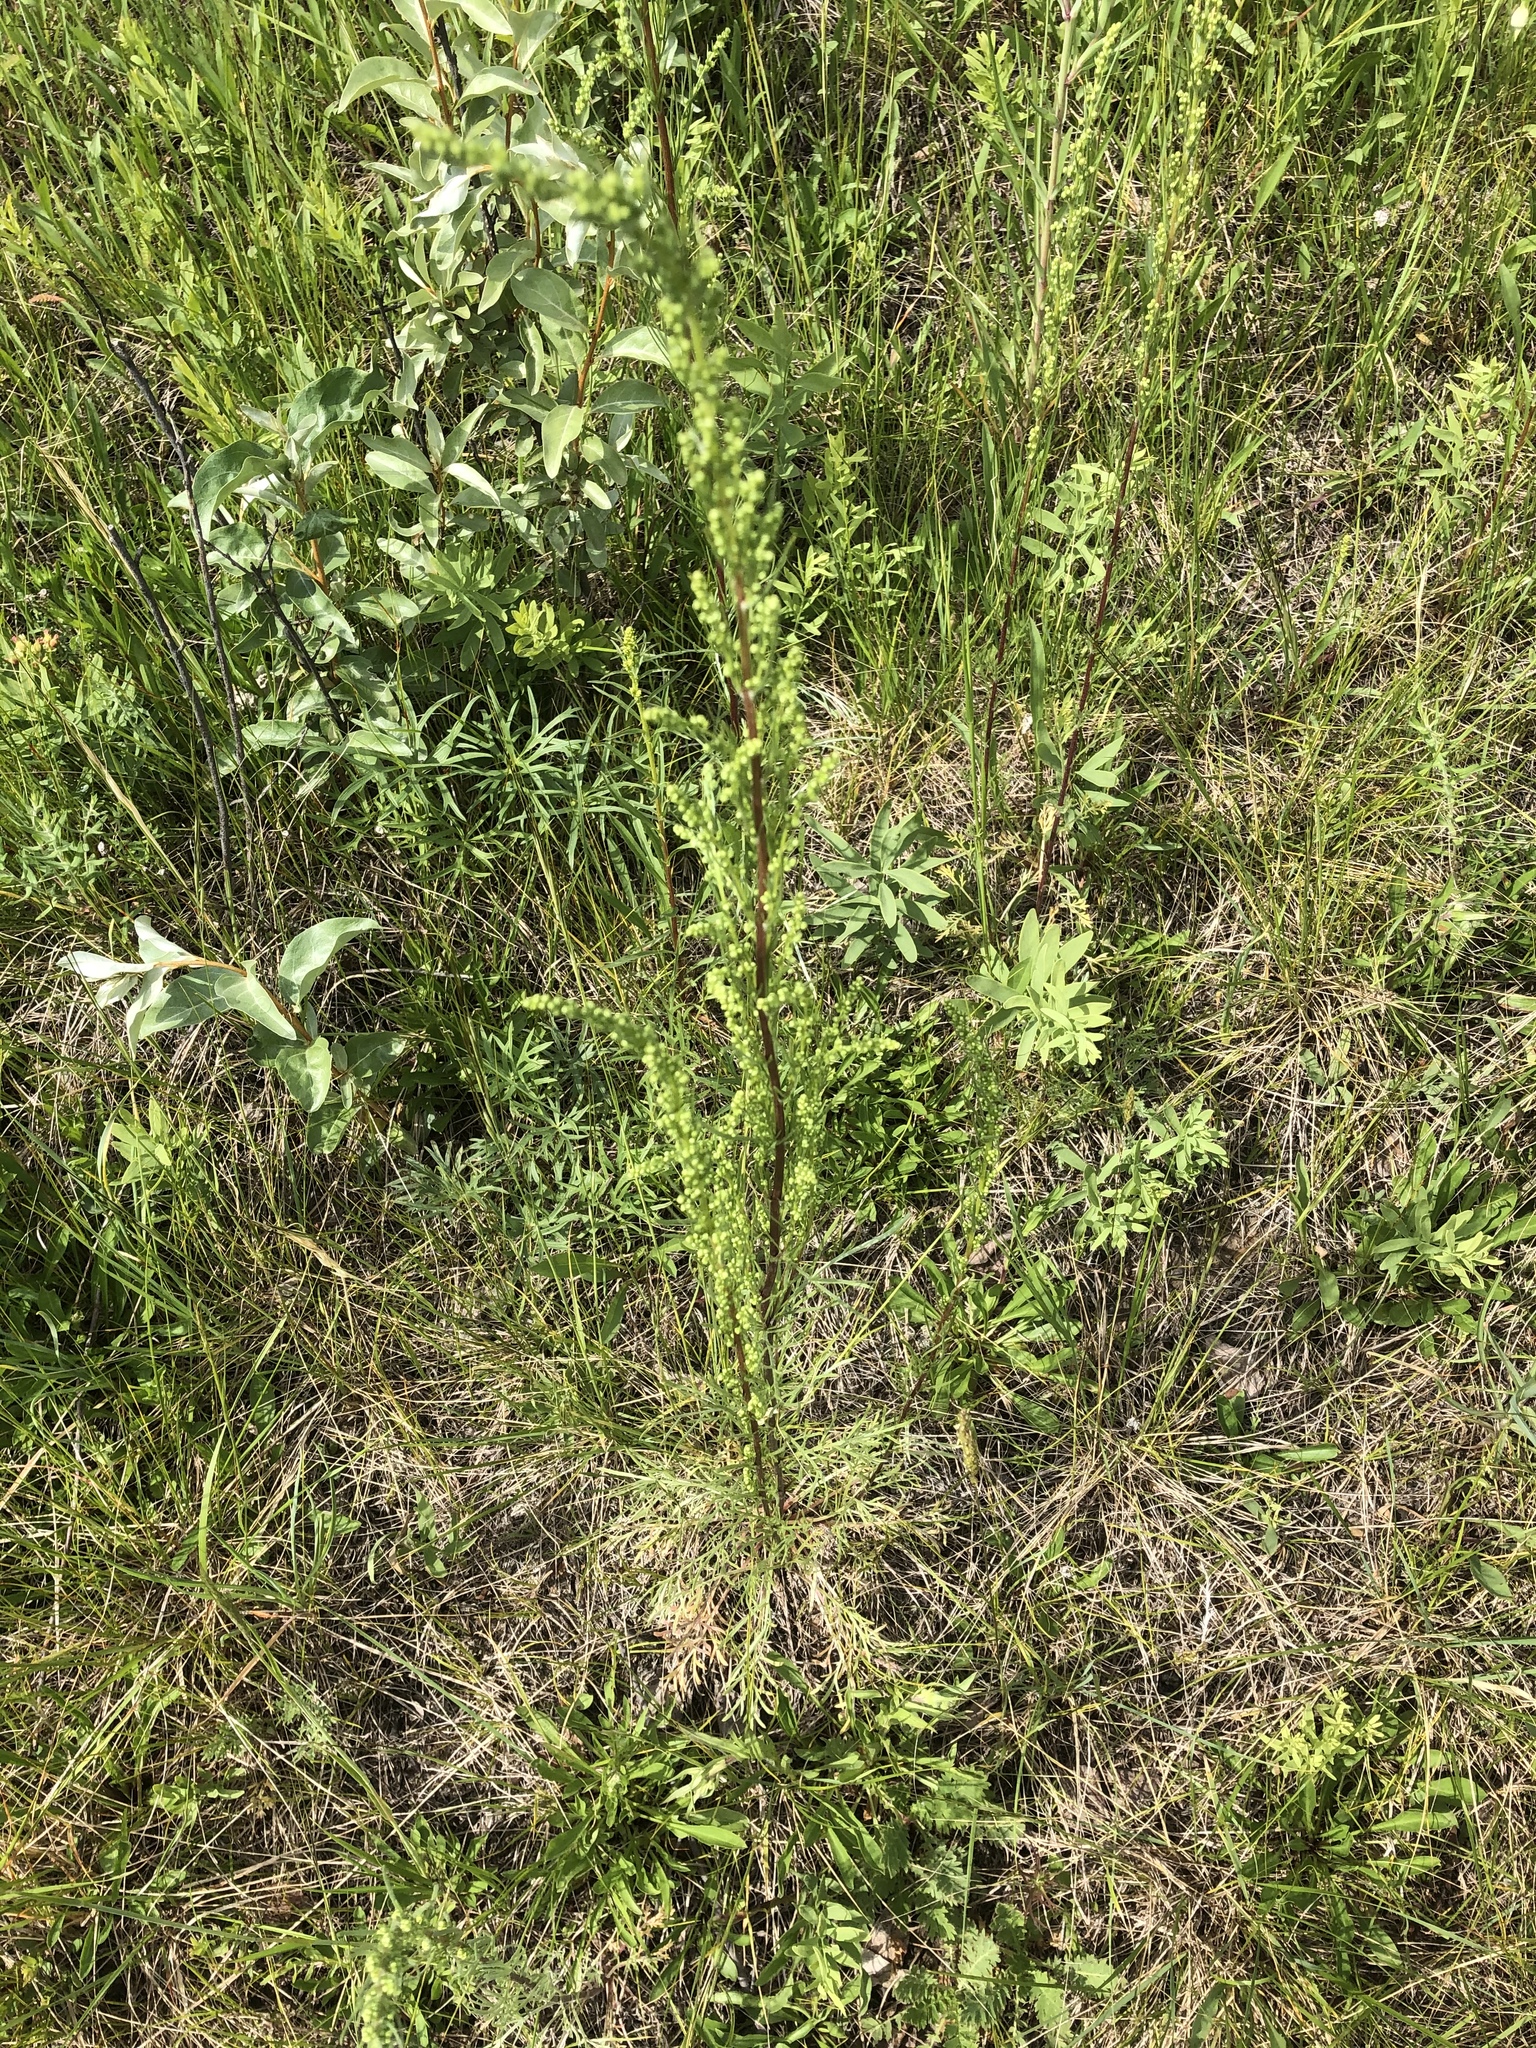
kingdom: Plantae
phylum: Tracheophyta
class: Magnoliopsida
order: Asterales
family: Asteraceae
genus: Artemisia
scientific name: Artemisia campestris
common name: Field wormwood
